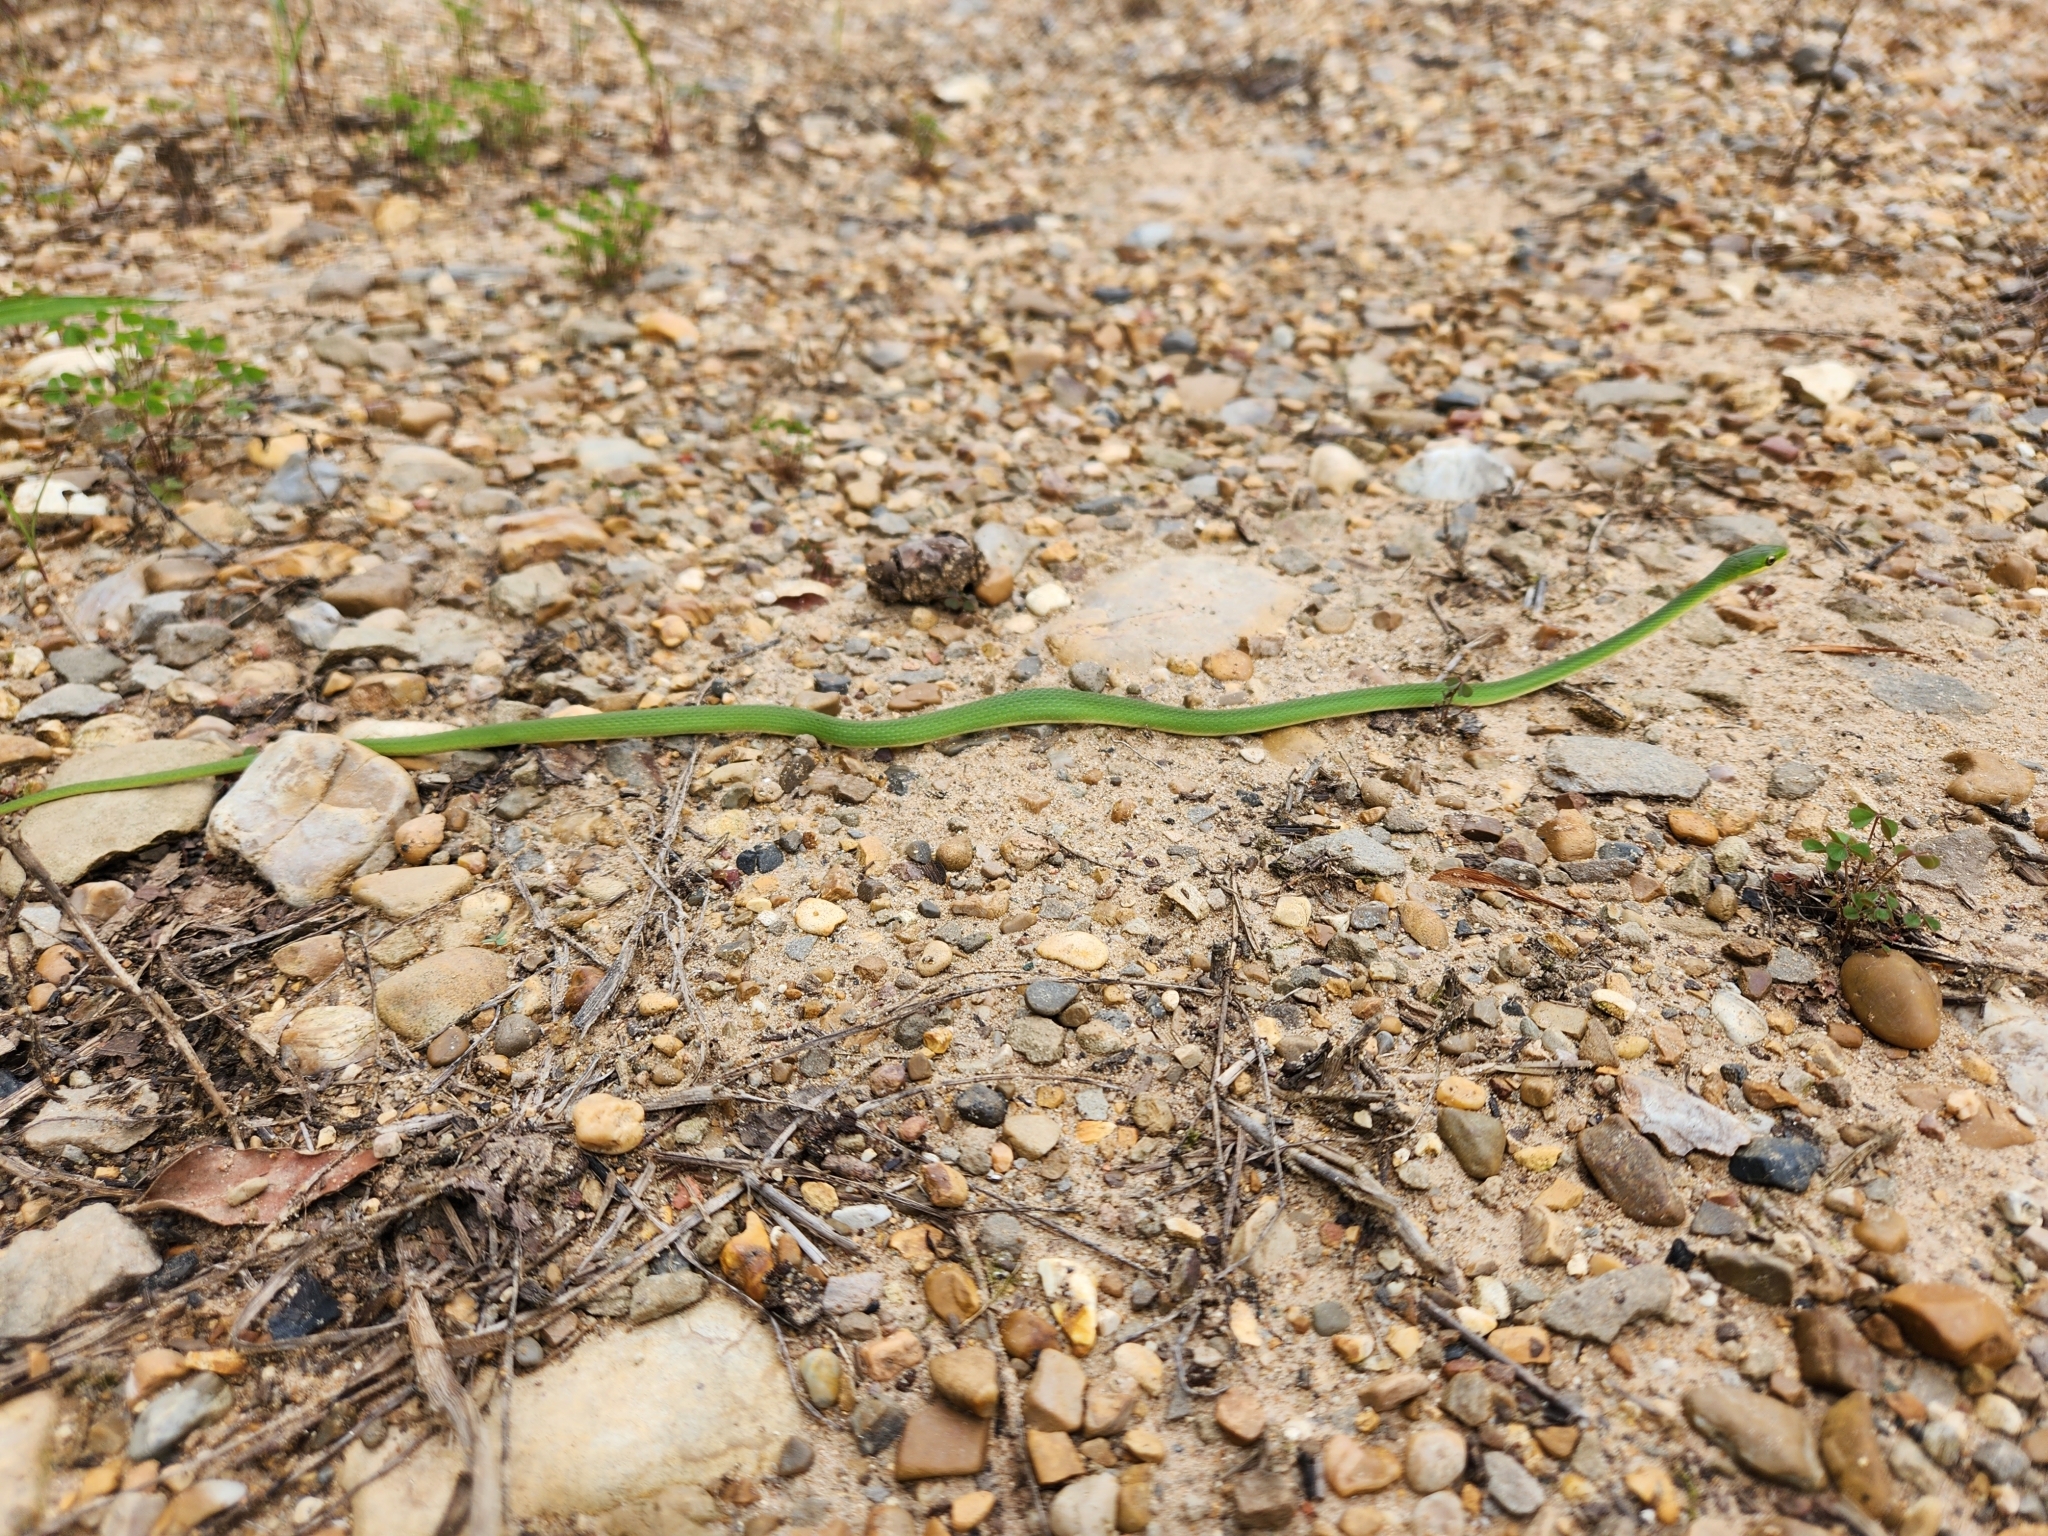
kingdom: Animalia
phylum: Chordata
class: Squamata
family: Colubridae
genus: Opheodrys
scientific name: Opheodrys aestivus
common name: Rough greensnake
